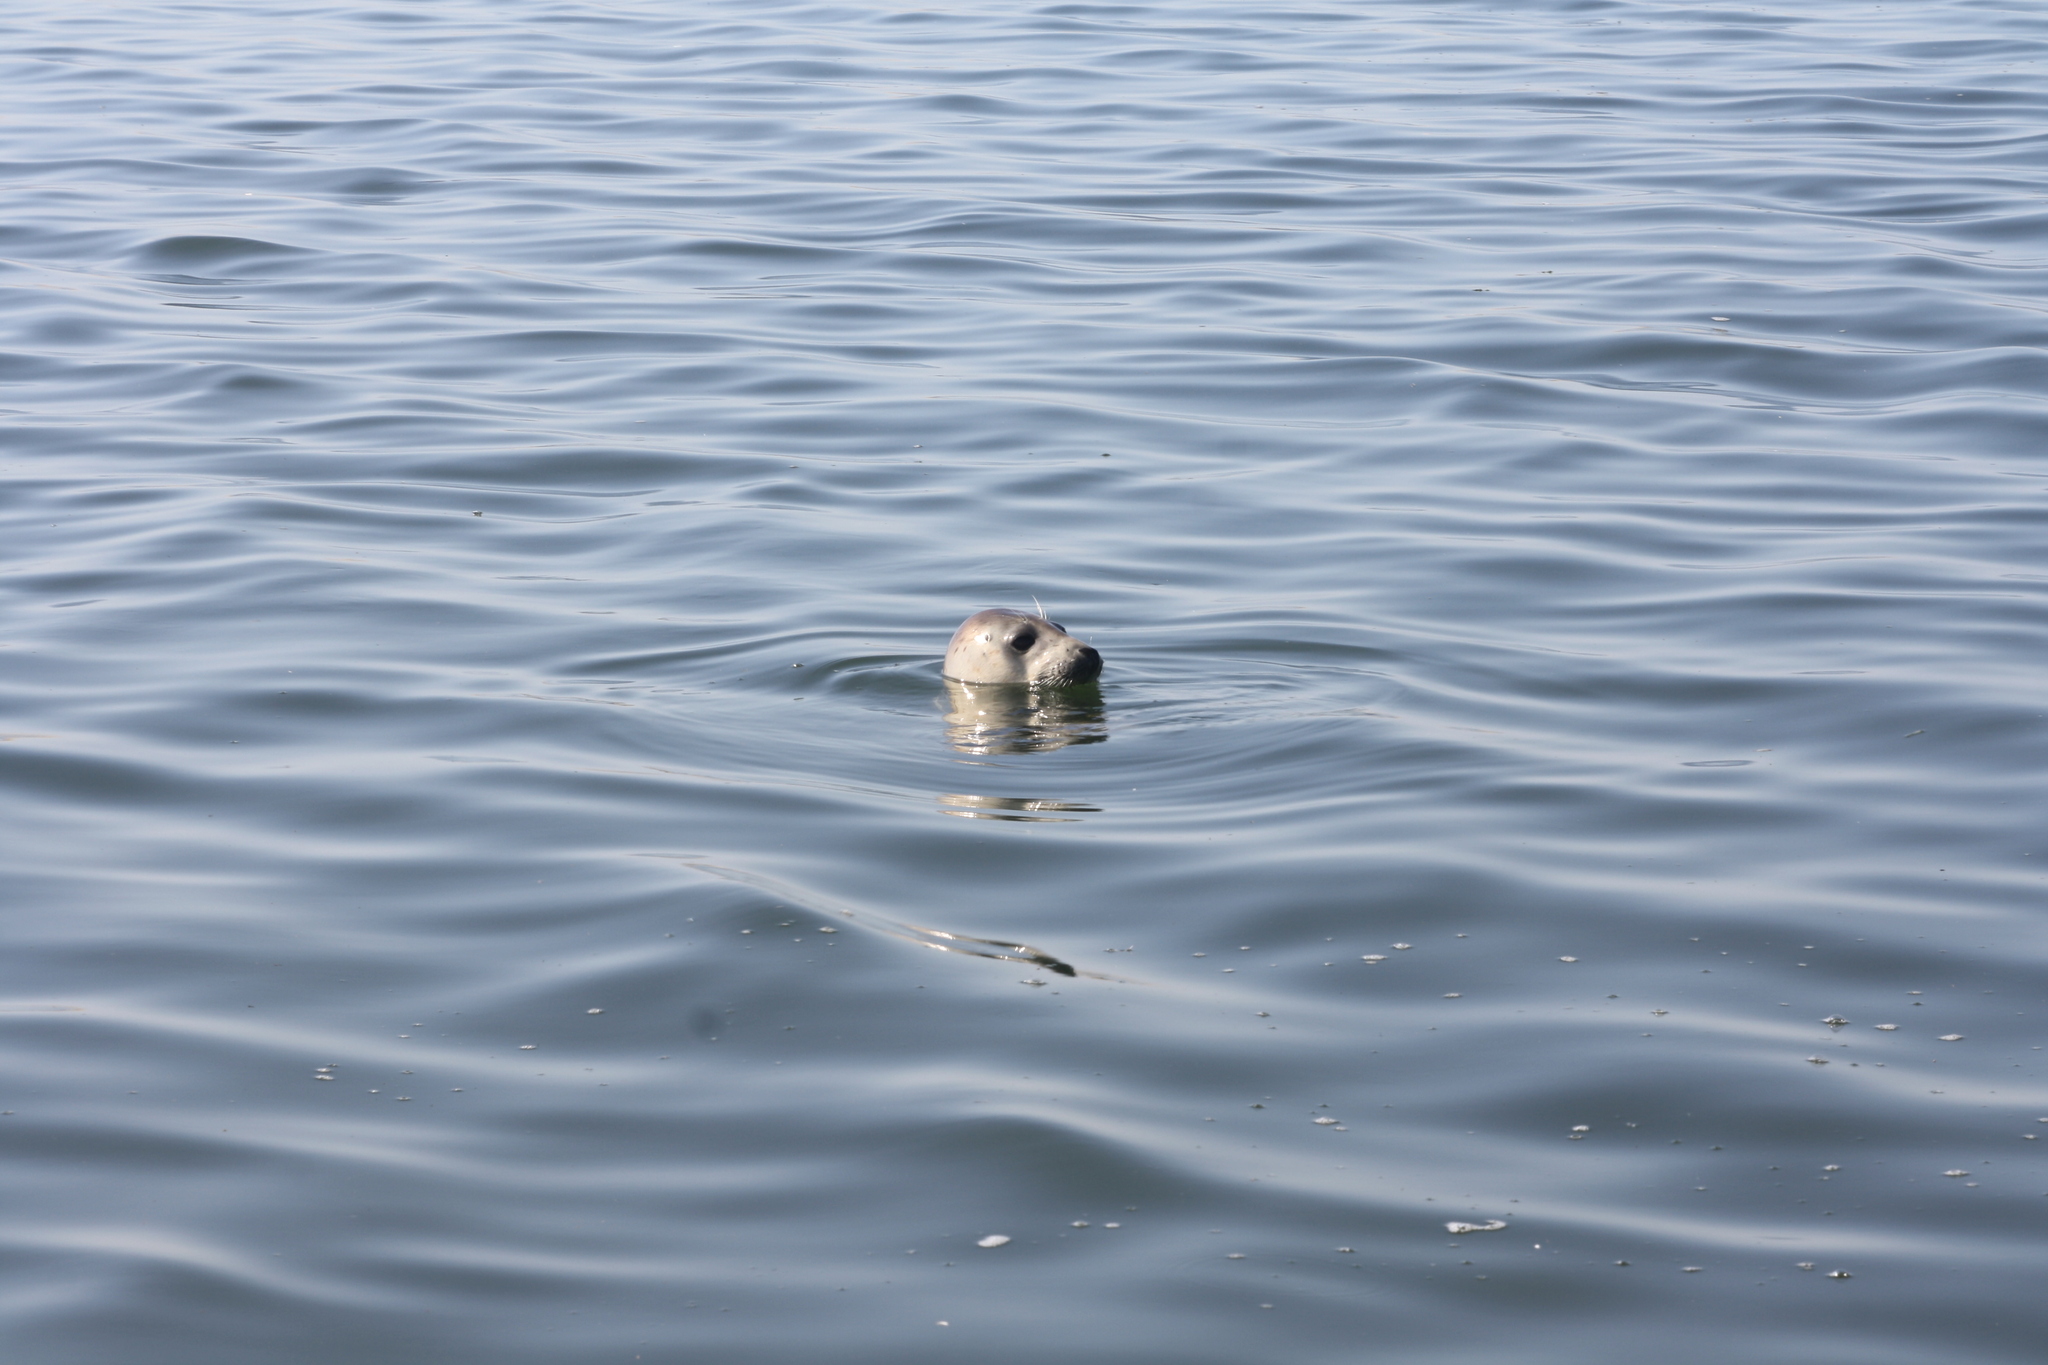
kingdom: Animalia
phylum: Chordata
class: Mammalia
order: Carnivora
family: Phocidae
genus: Halichoerus
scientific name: Halichoerus grypus
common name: Grey seal
